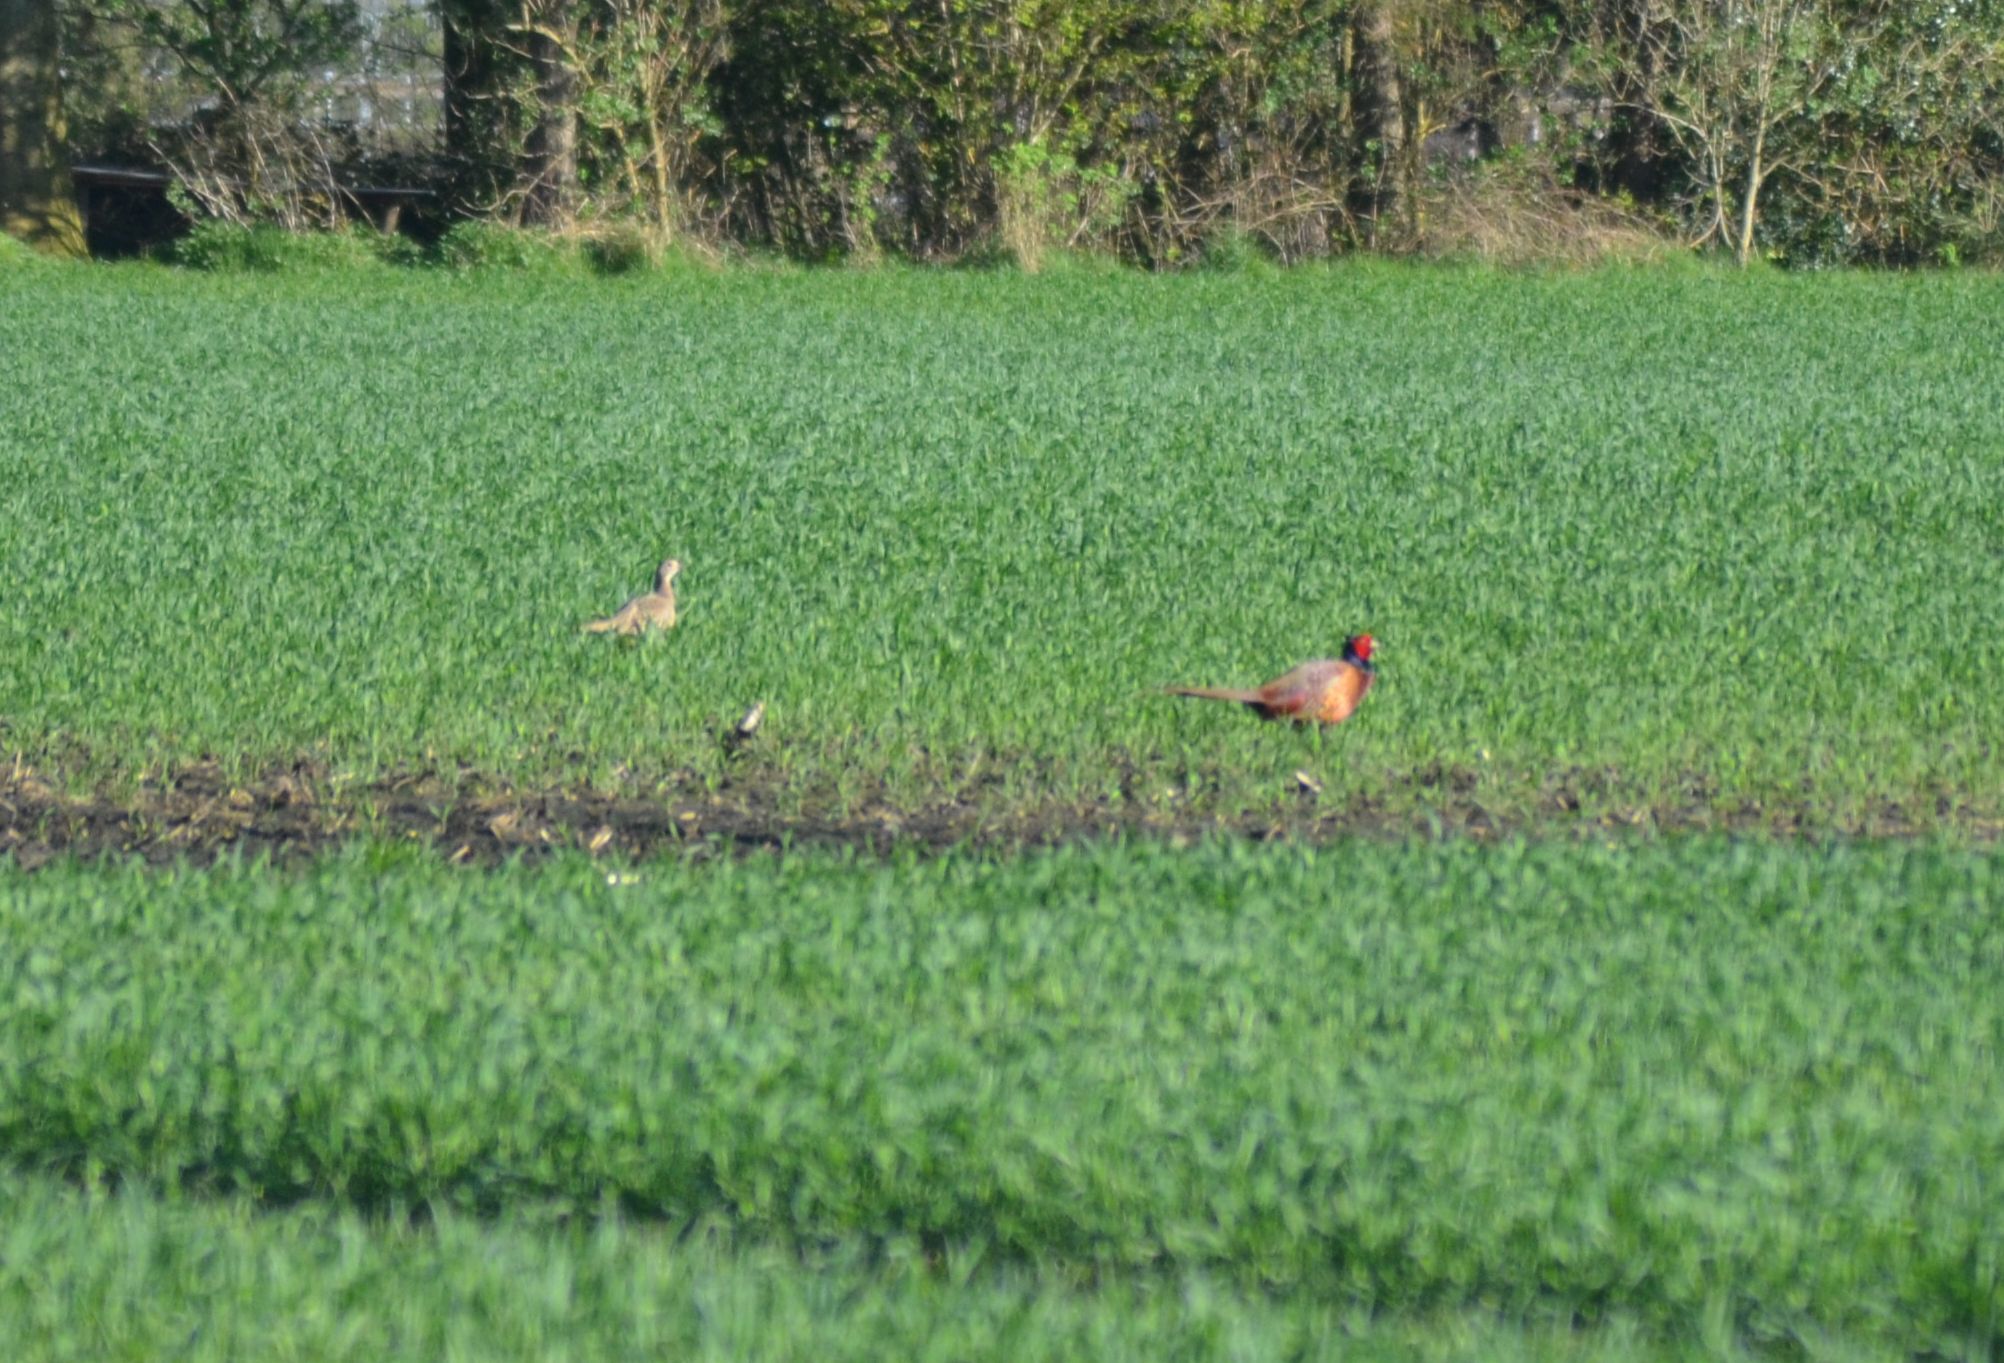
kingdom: Animalia
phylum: Chordata
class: Aves
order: Galliformes
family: Phasianidae
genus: Phasianus
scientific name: Phasianus colchicus
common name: Common pheasant
